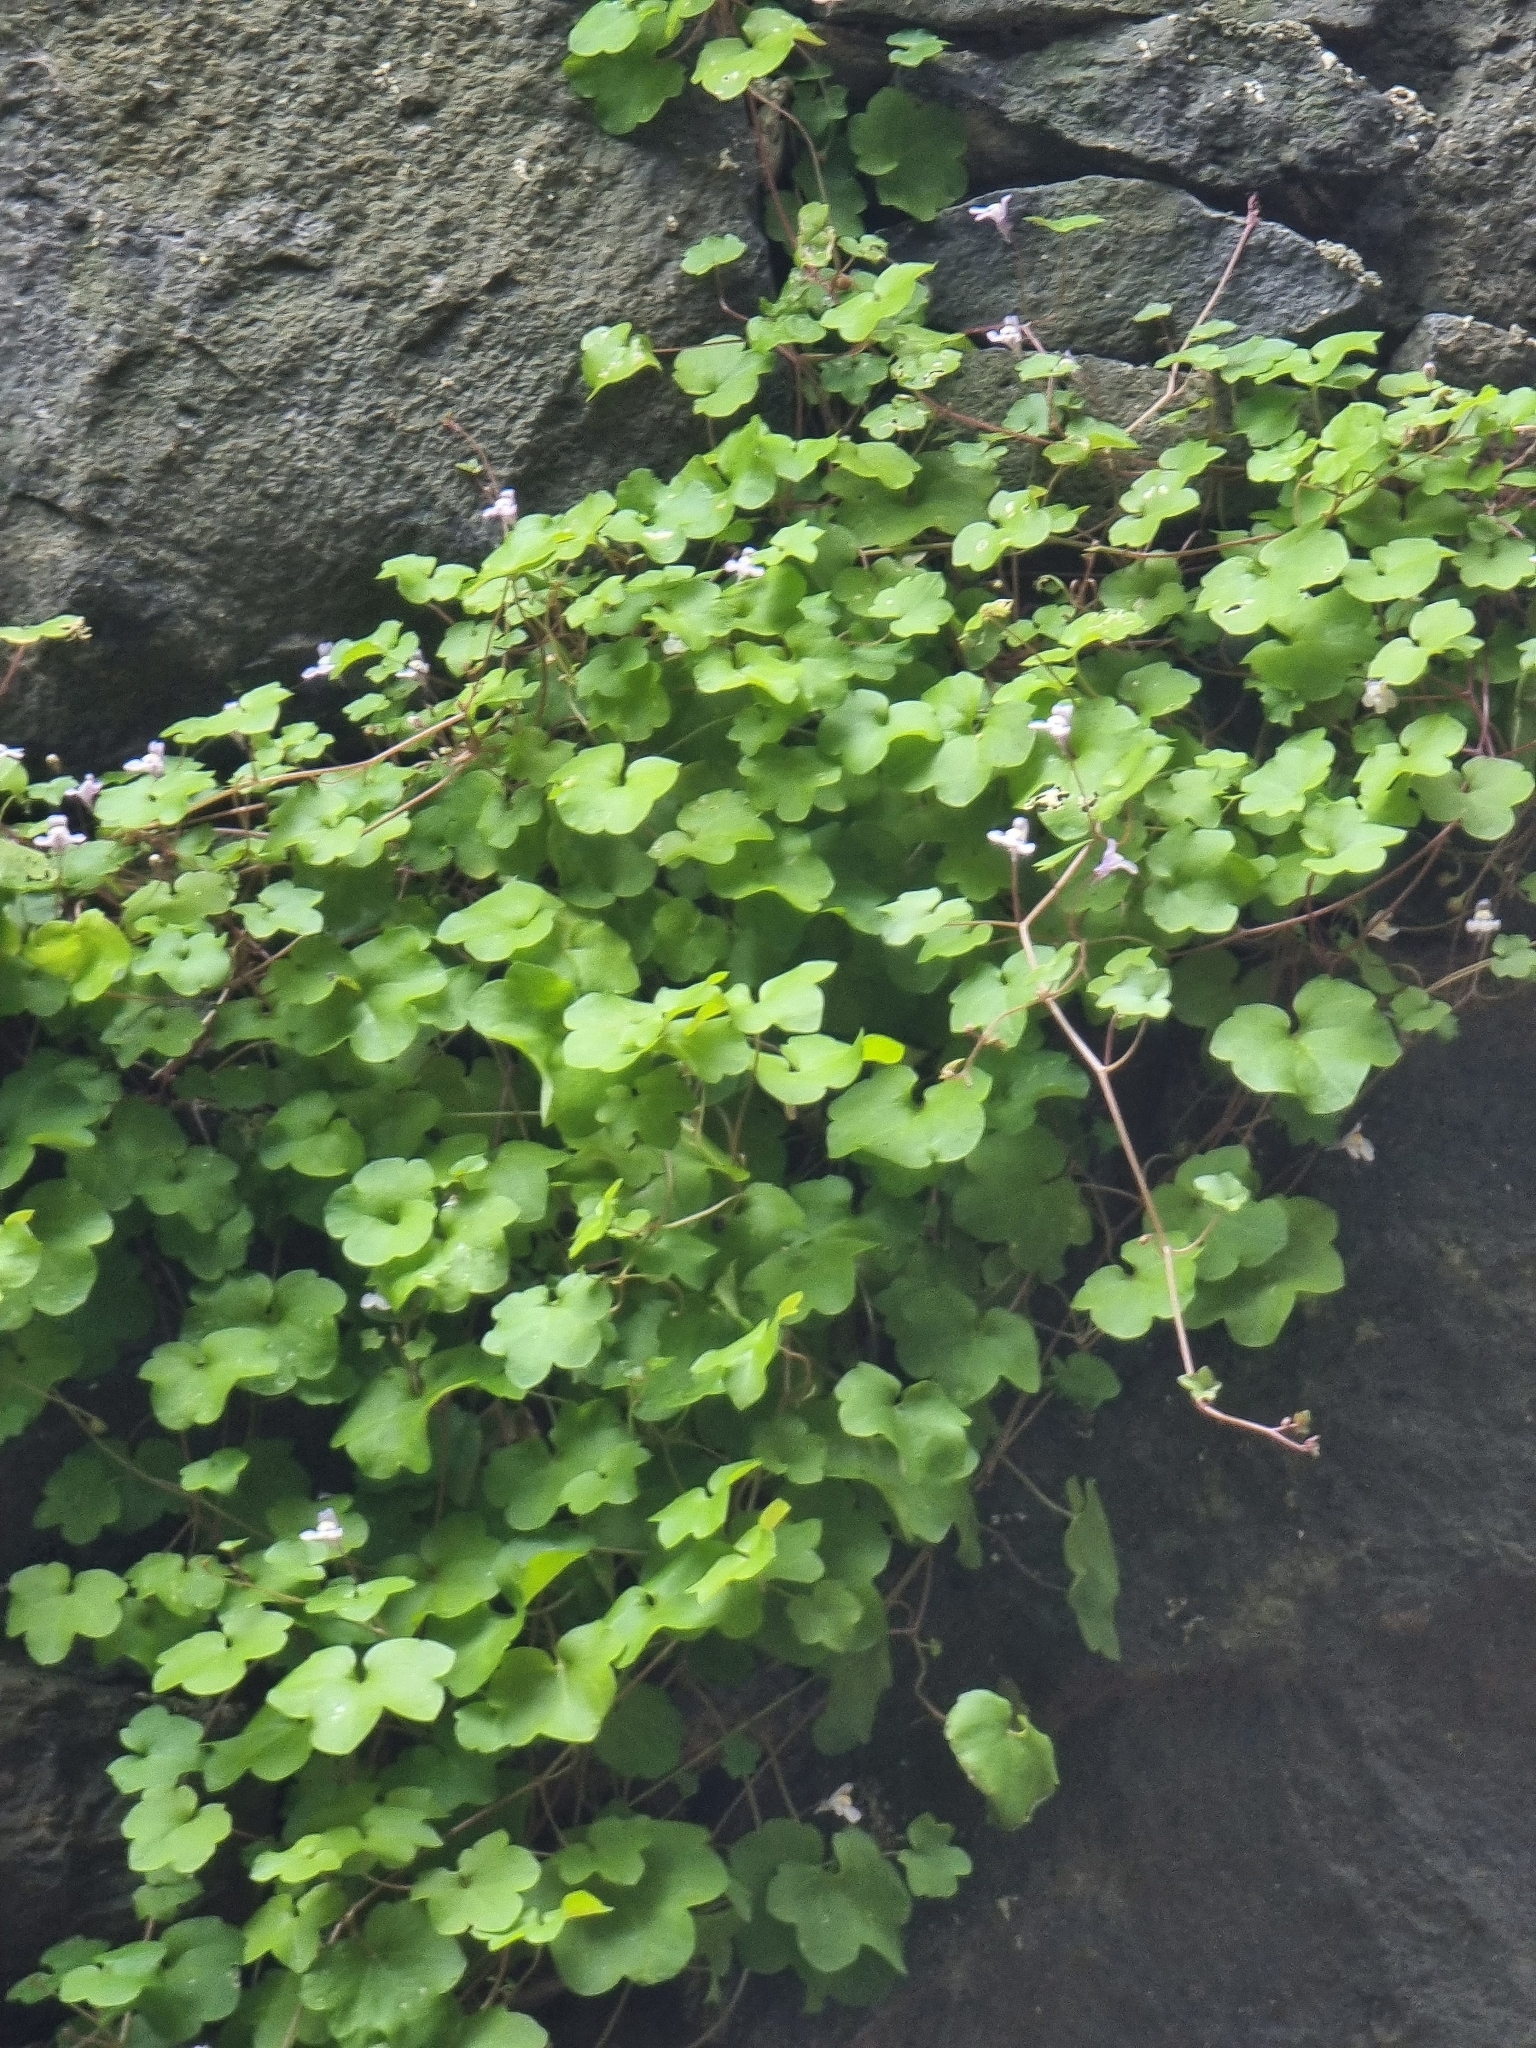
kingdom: Plantae
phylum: Tracheophyta
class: Magnoliopsida
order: Lamiales
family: Plantaginaceae
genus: Cymbalaria
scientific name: Cymbalaria muralis
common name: Ivy-leaved toadflax
